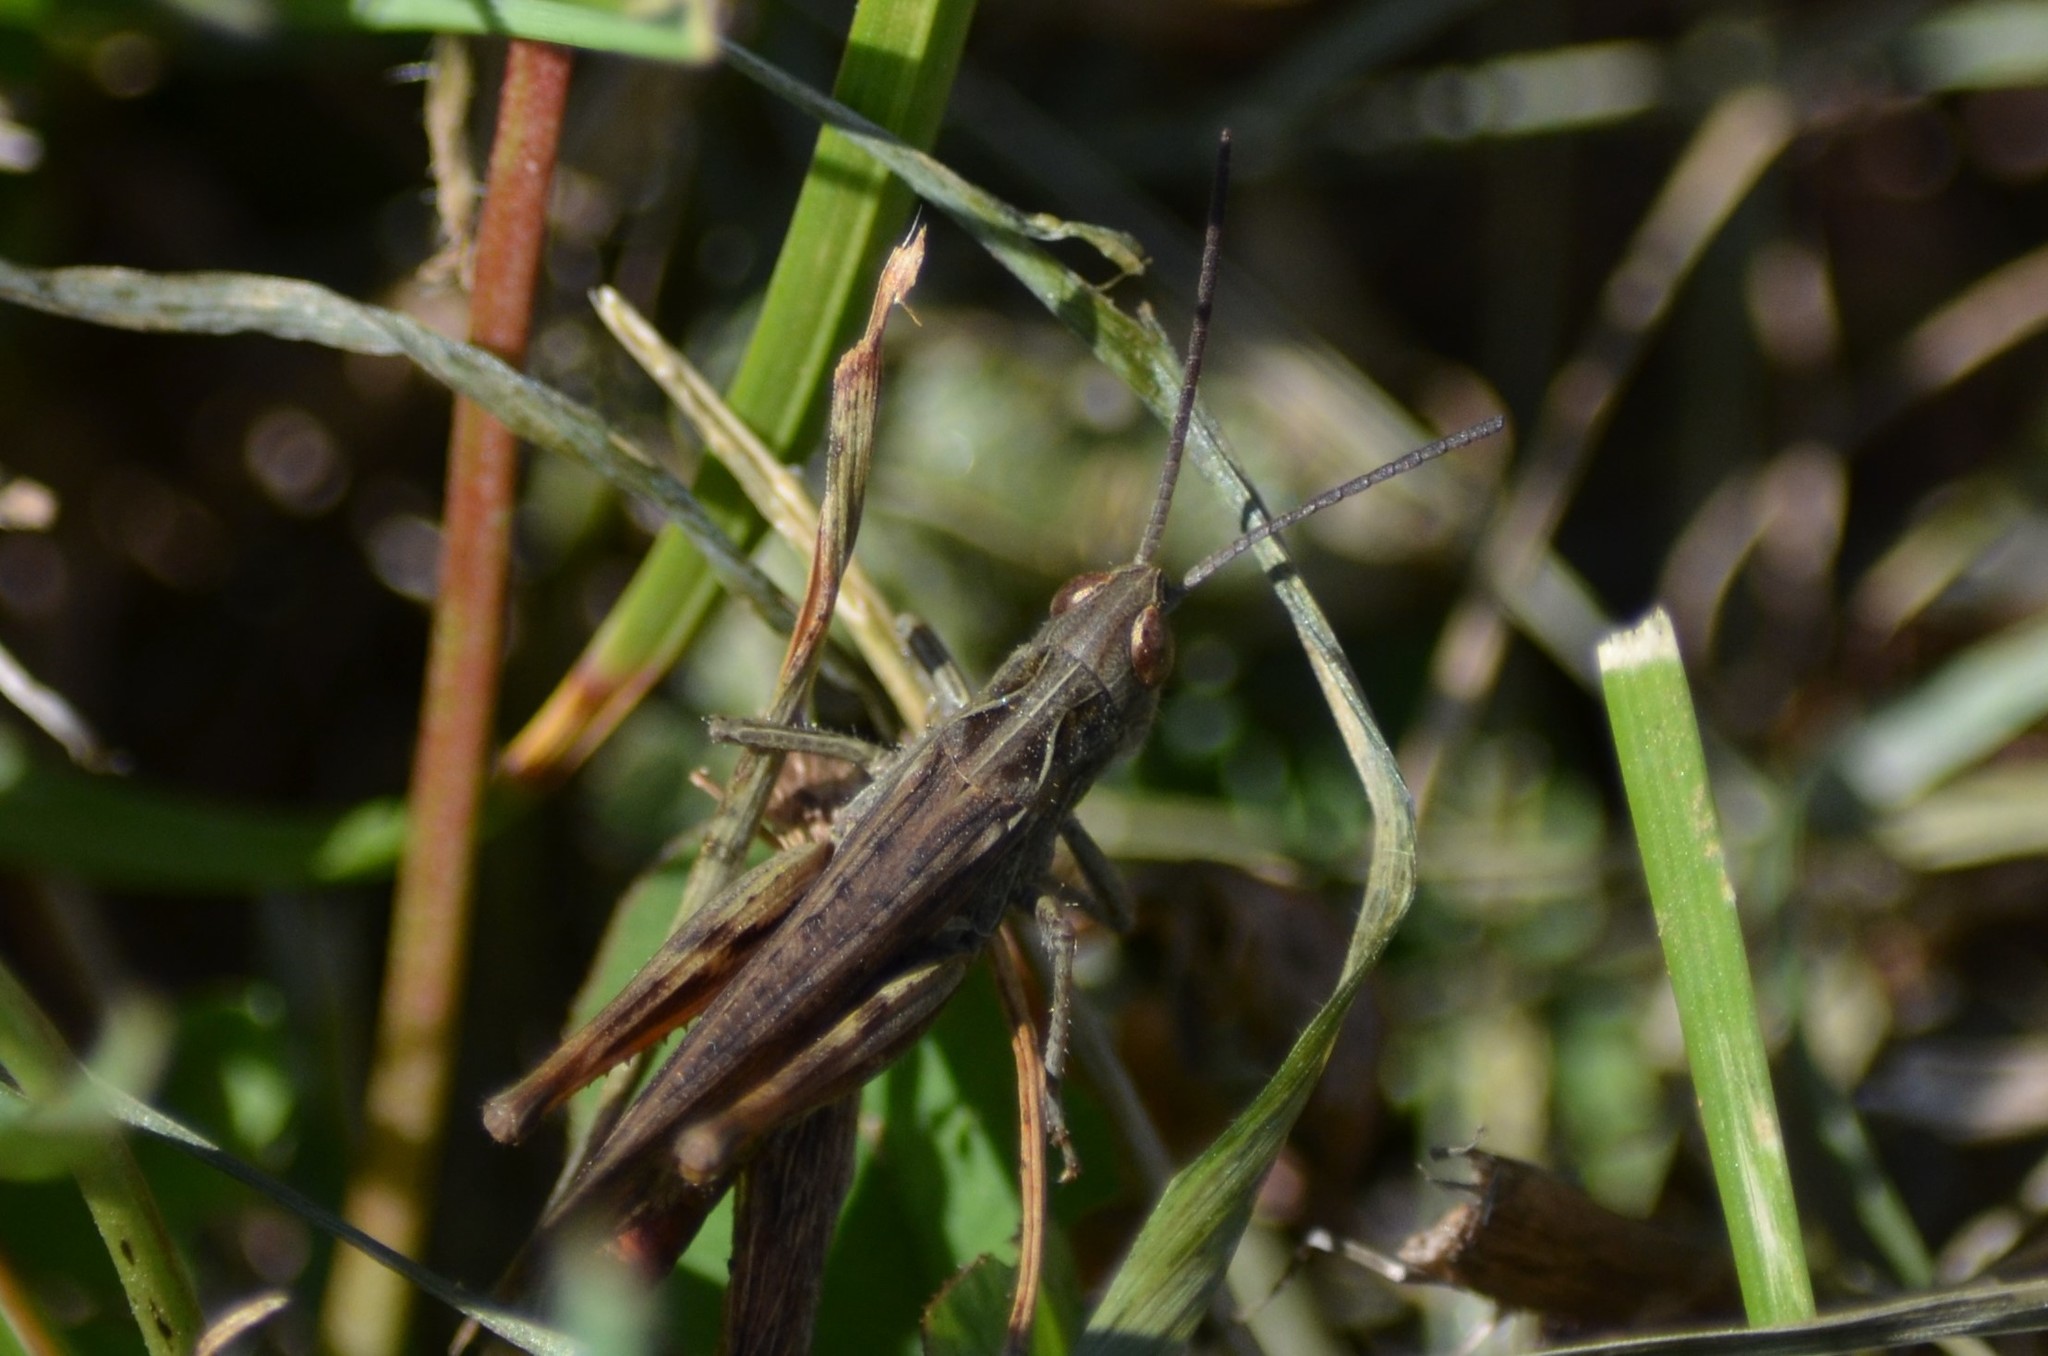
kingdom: Animalia
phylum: Arthropoda
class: Insecta
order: Orthoptera
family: Acrididae
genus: Chorthippus
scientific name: Chorthippus biguttulus
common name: Bow-winged grasshopper
